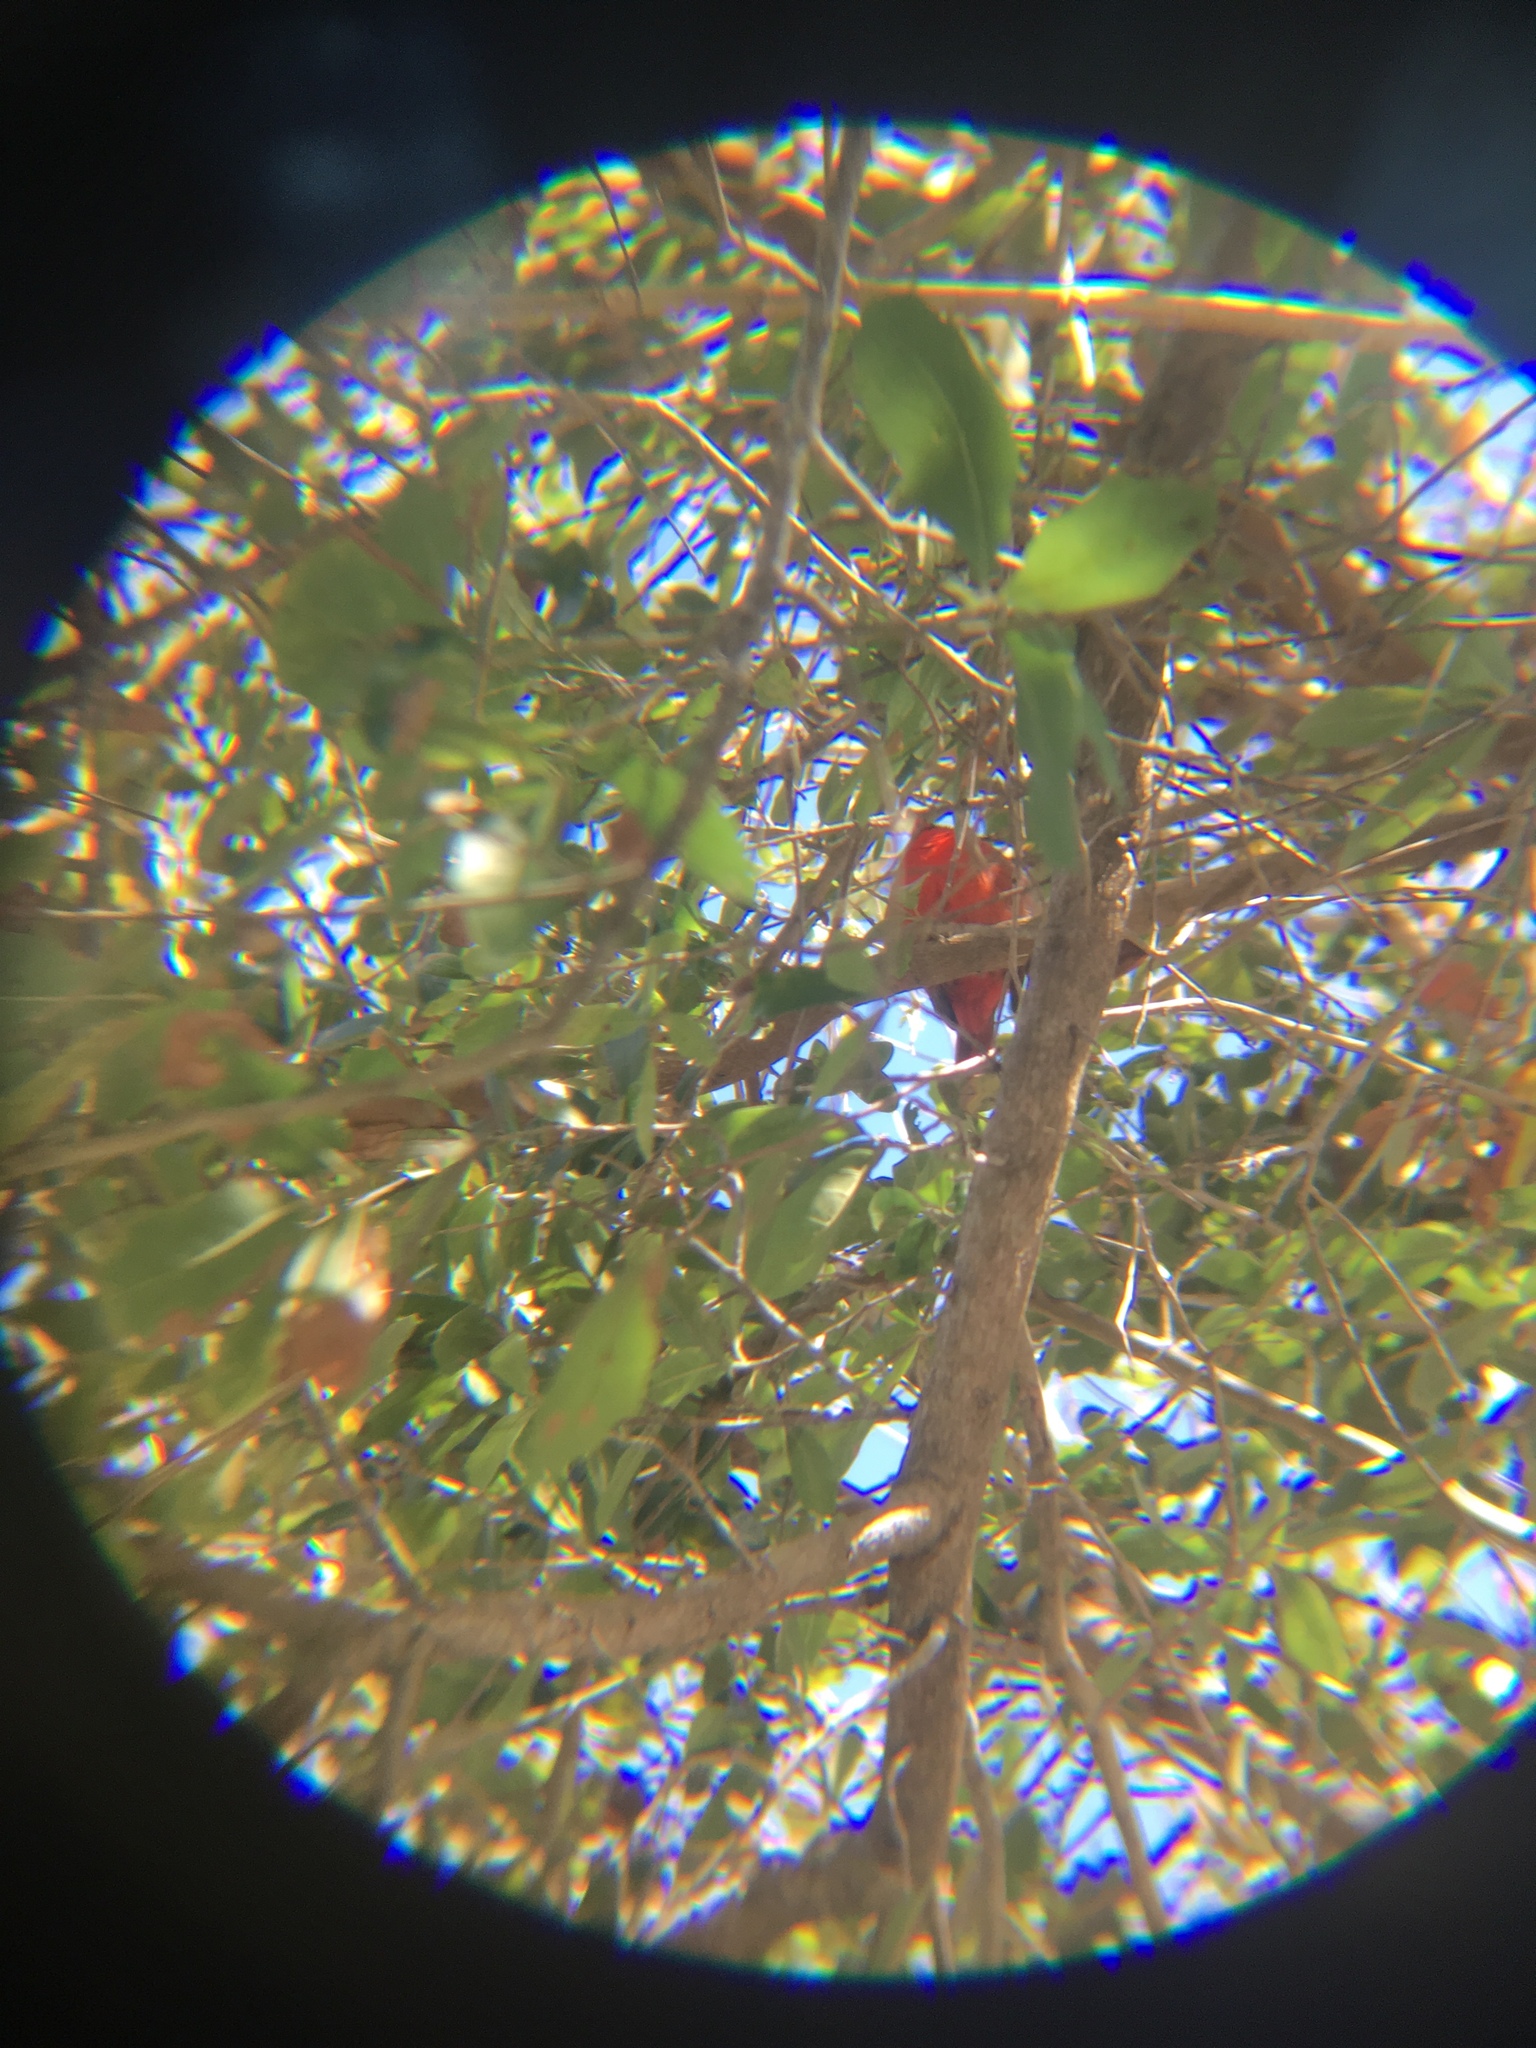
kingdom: Animalia
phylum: Chordata
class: Aves
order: Passeriformes
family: Cardinalidae
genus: Cardinalis
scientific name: Cardinalis cardinalis
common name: Northern cardinal
